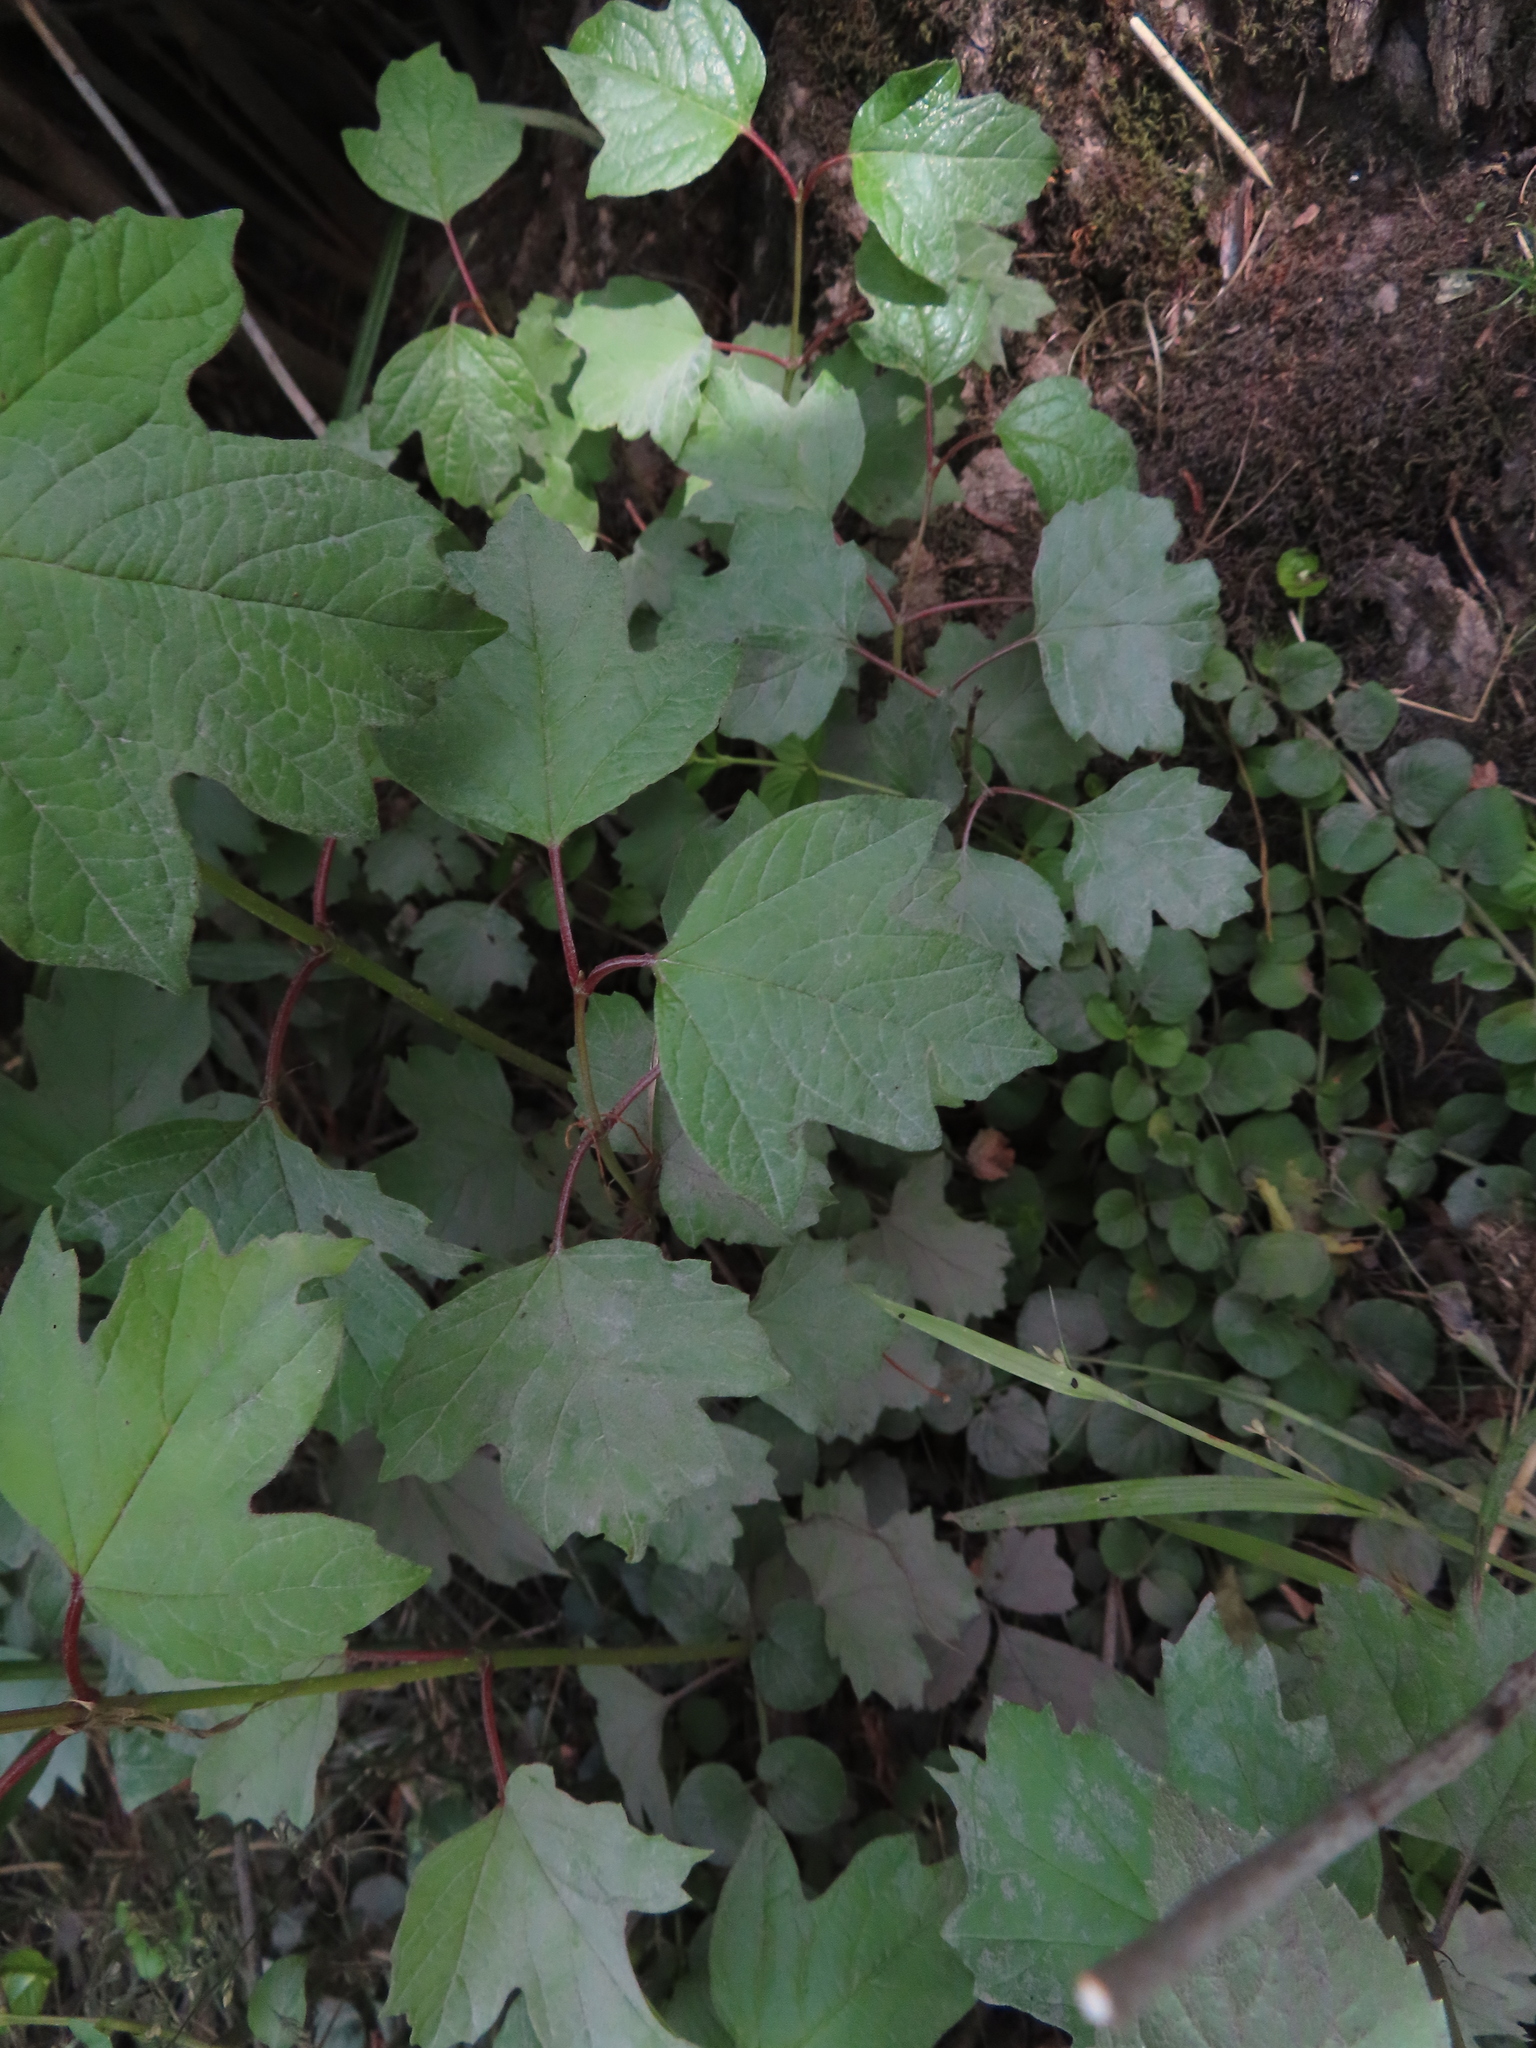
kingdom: Plantae
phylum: Tracheophyta
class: Magnoliopsida
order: Dipsacales
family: Viburnaceae
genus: Viburnum
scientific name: Viburnum opulus
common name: Guelder-rose
